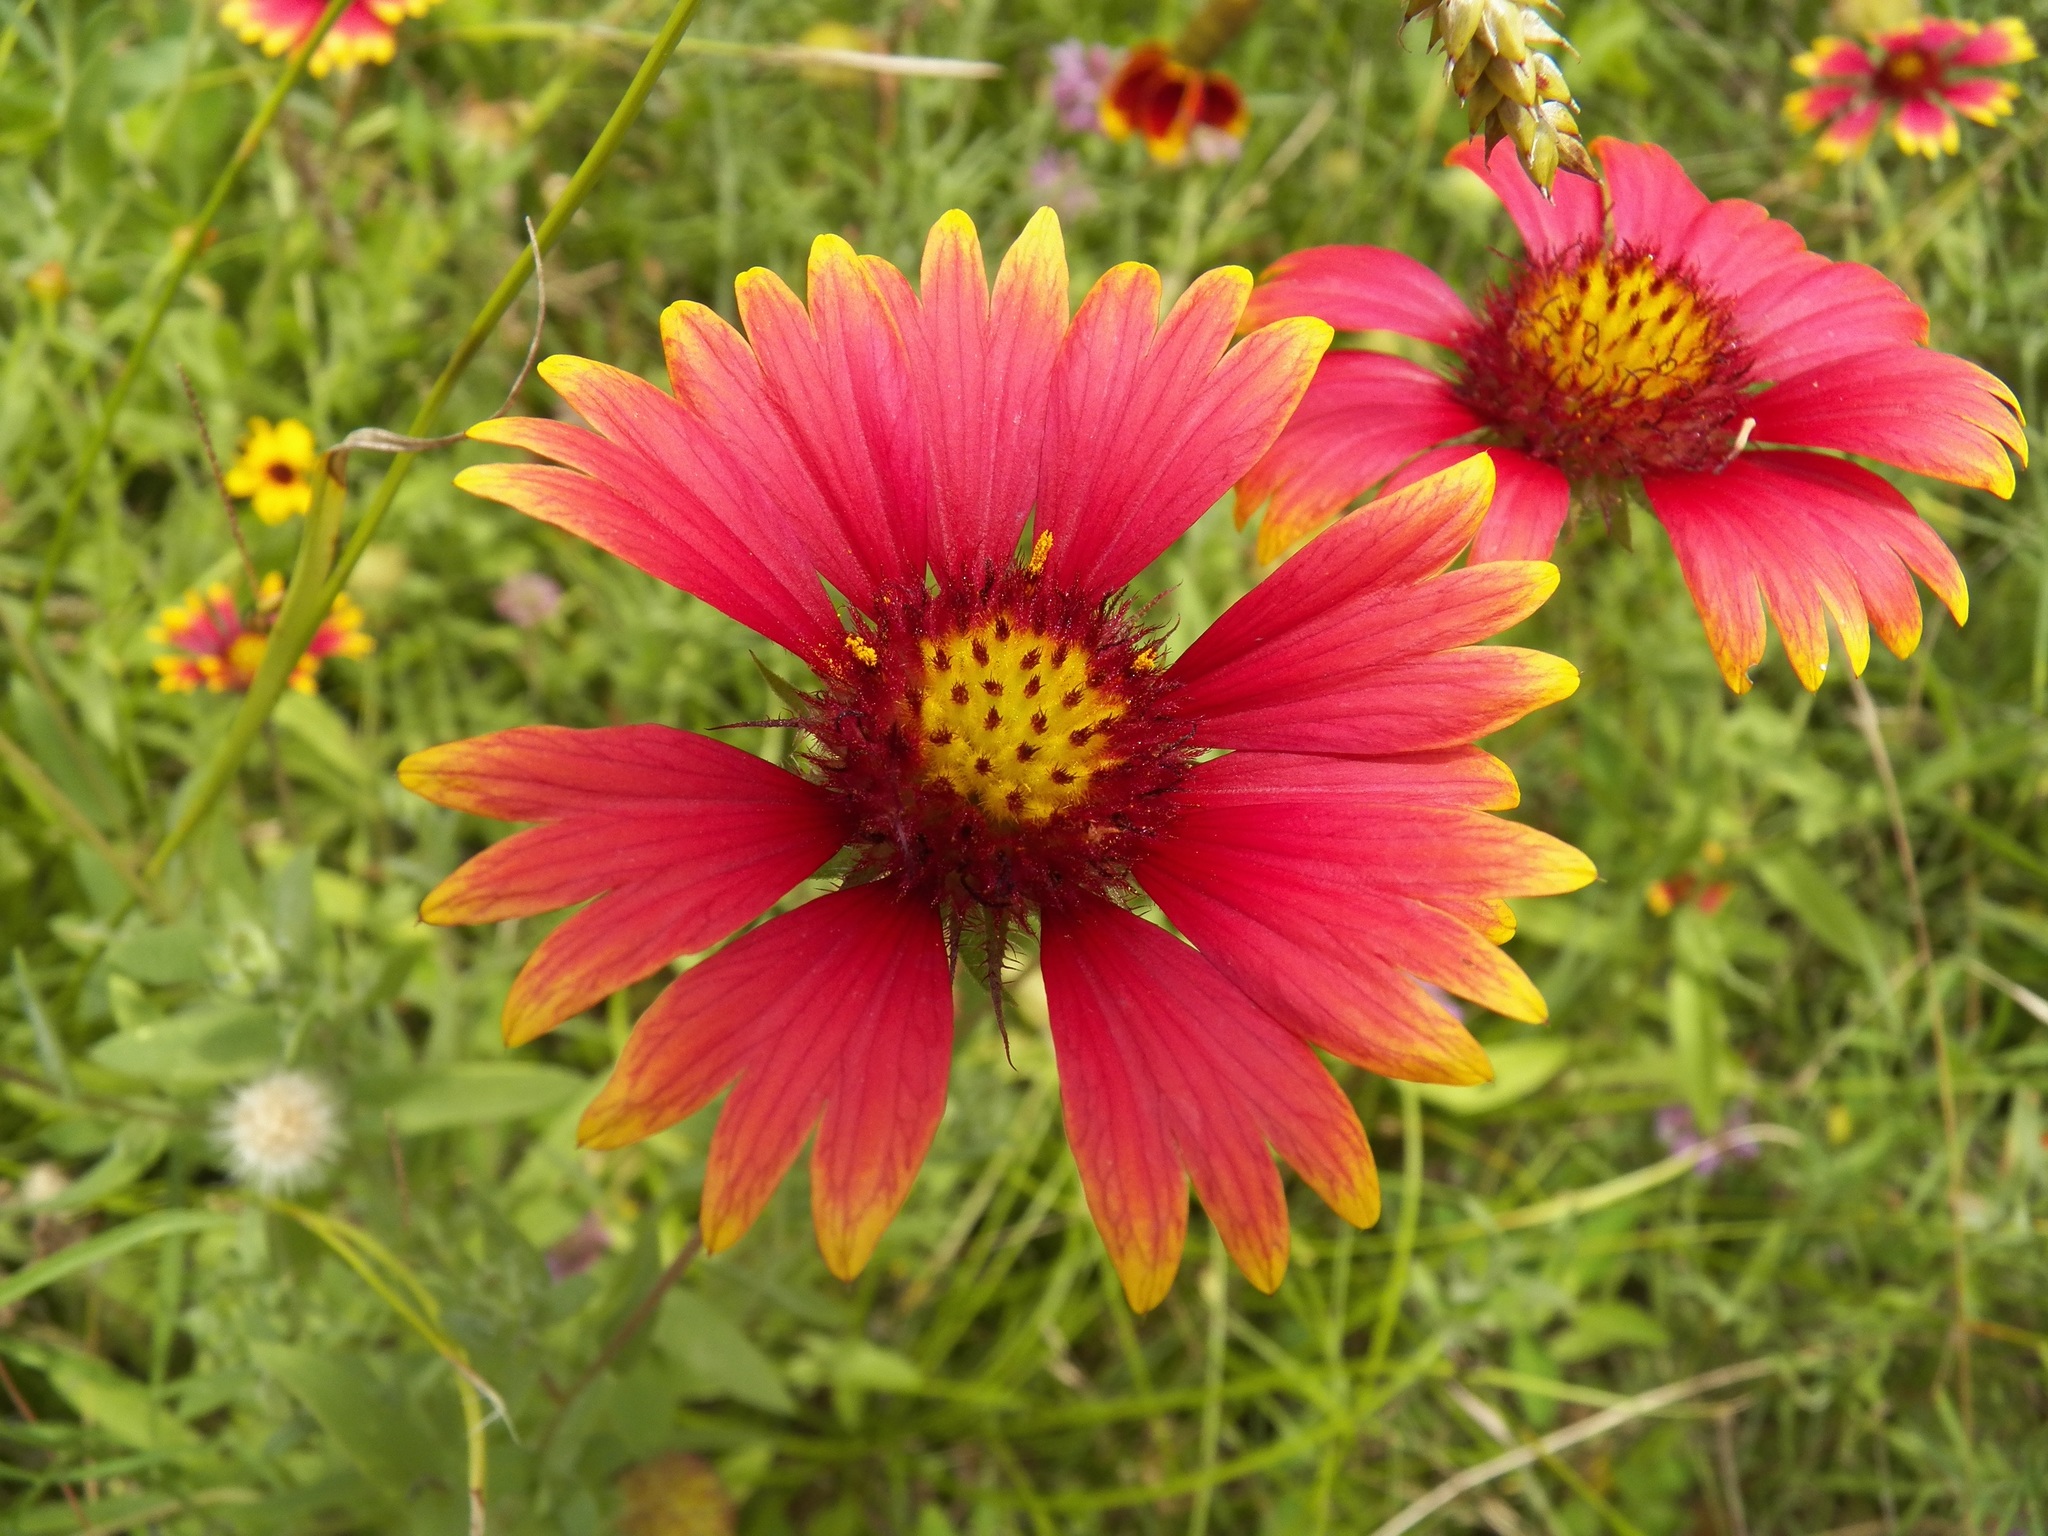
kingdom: Plantae
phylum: Tracheophyta
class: Magnoliopsida
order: Asterales
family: Asteraceae
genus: Gaillardia
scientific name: Gaillardia pulchella
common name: Firewheel
